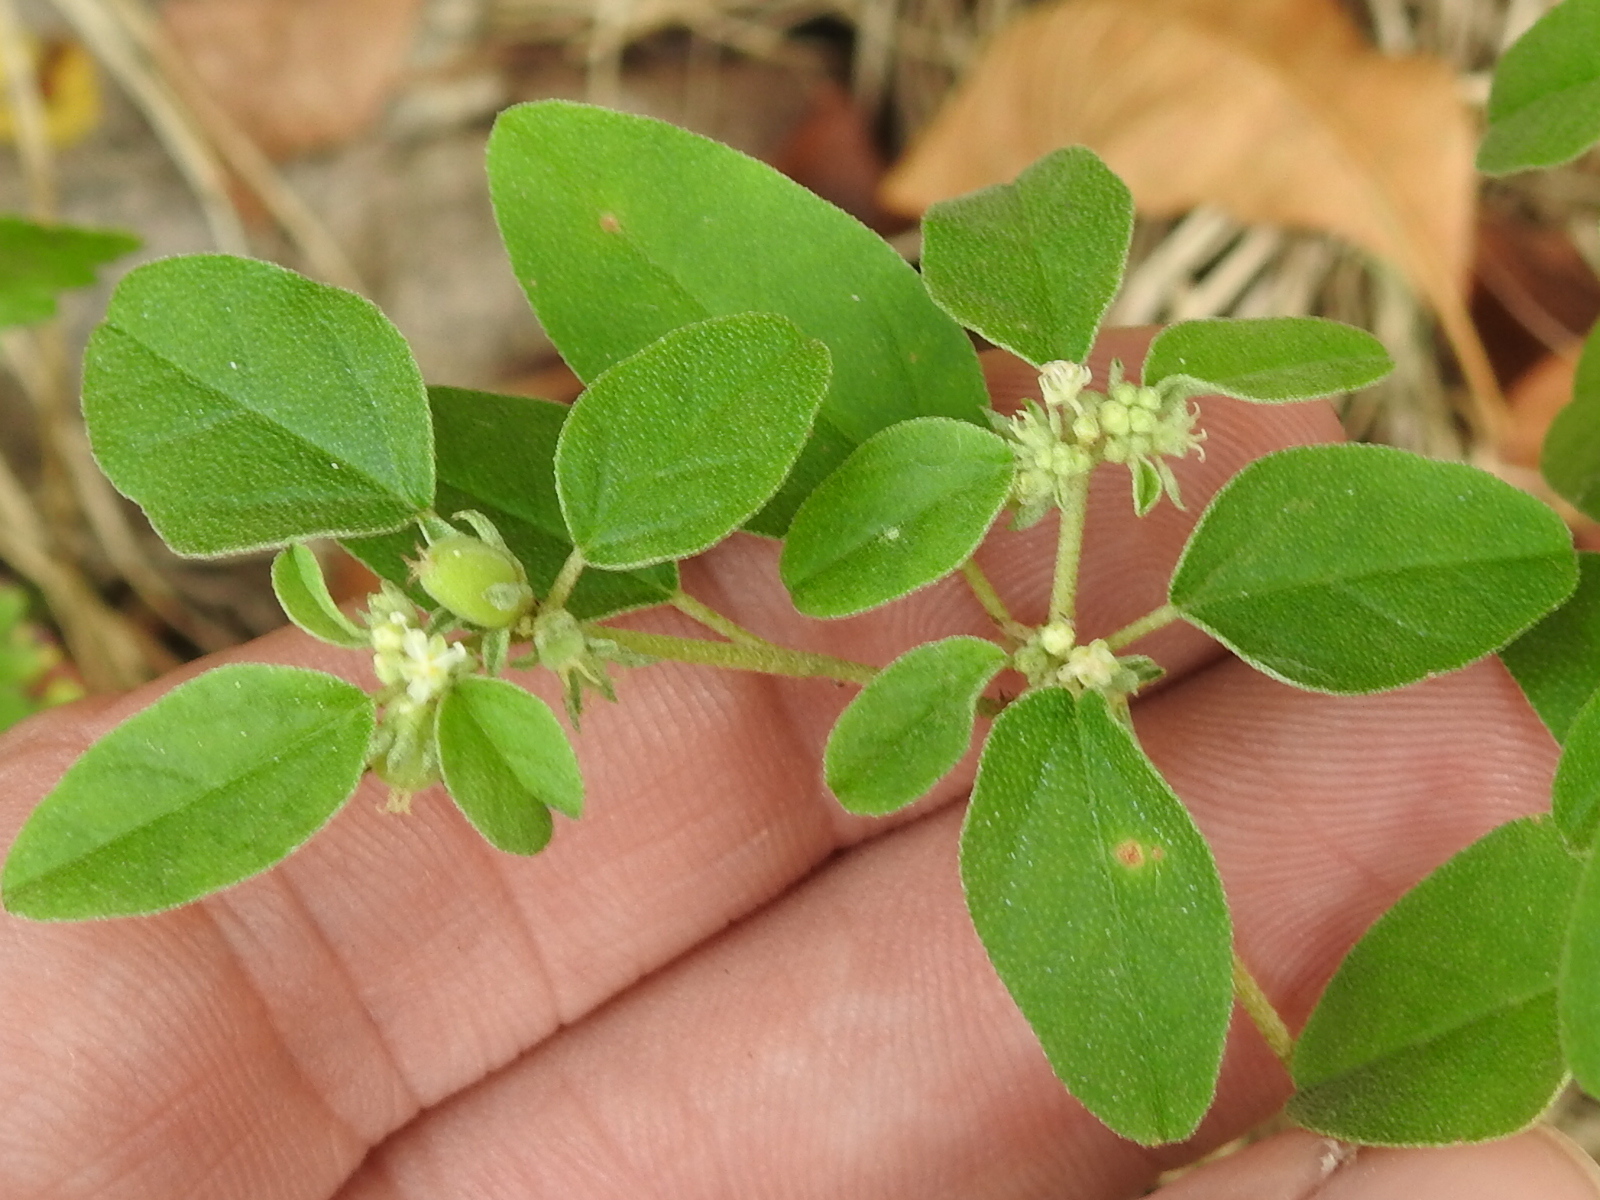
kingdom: Plantae
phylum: Tracheophyta
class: Magnoliopsida
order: Malpighiales
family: Euphorbiaceae
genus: Croton
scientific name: Croton monanthogynus
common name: One-seed croton
